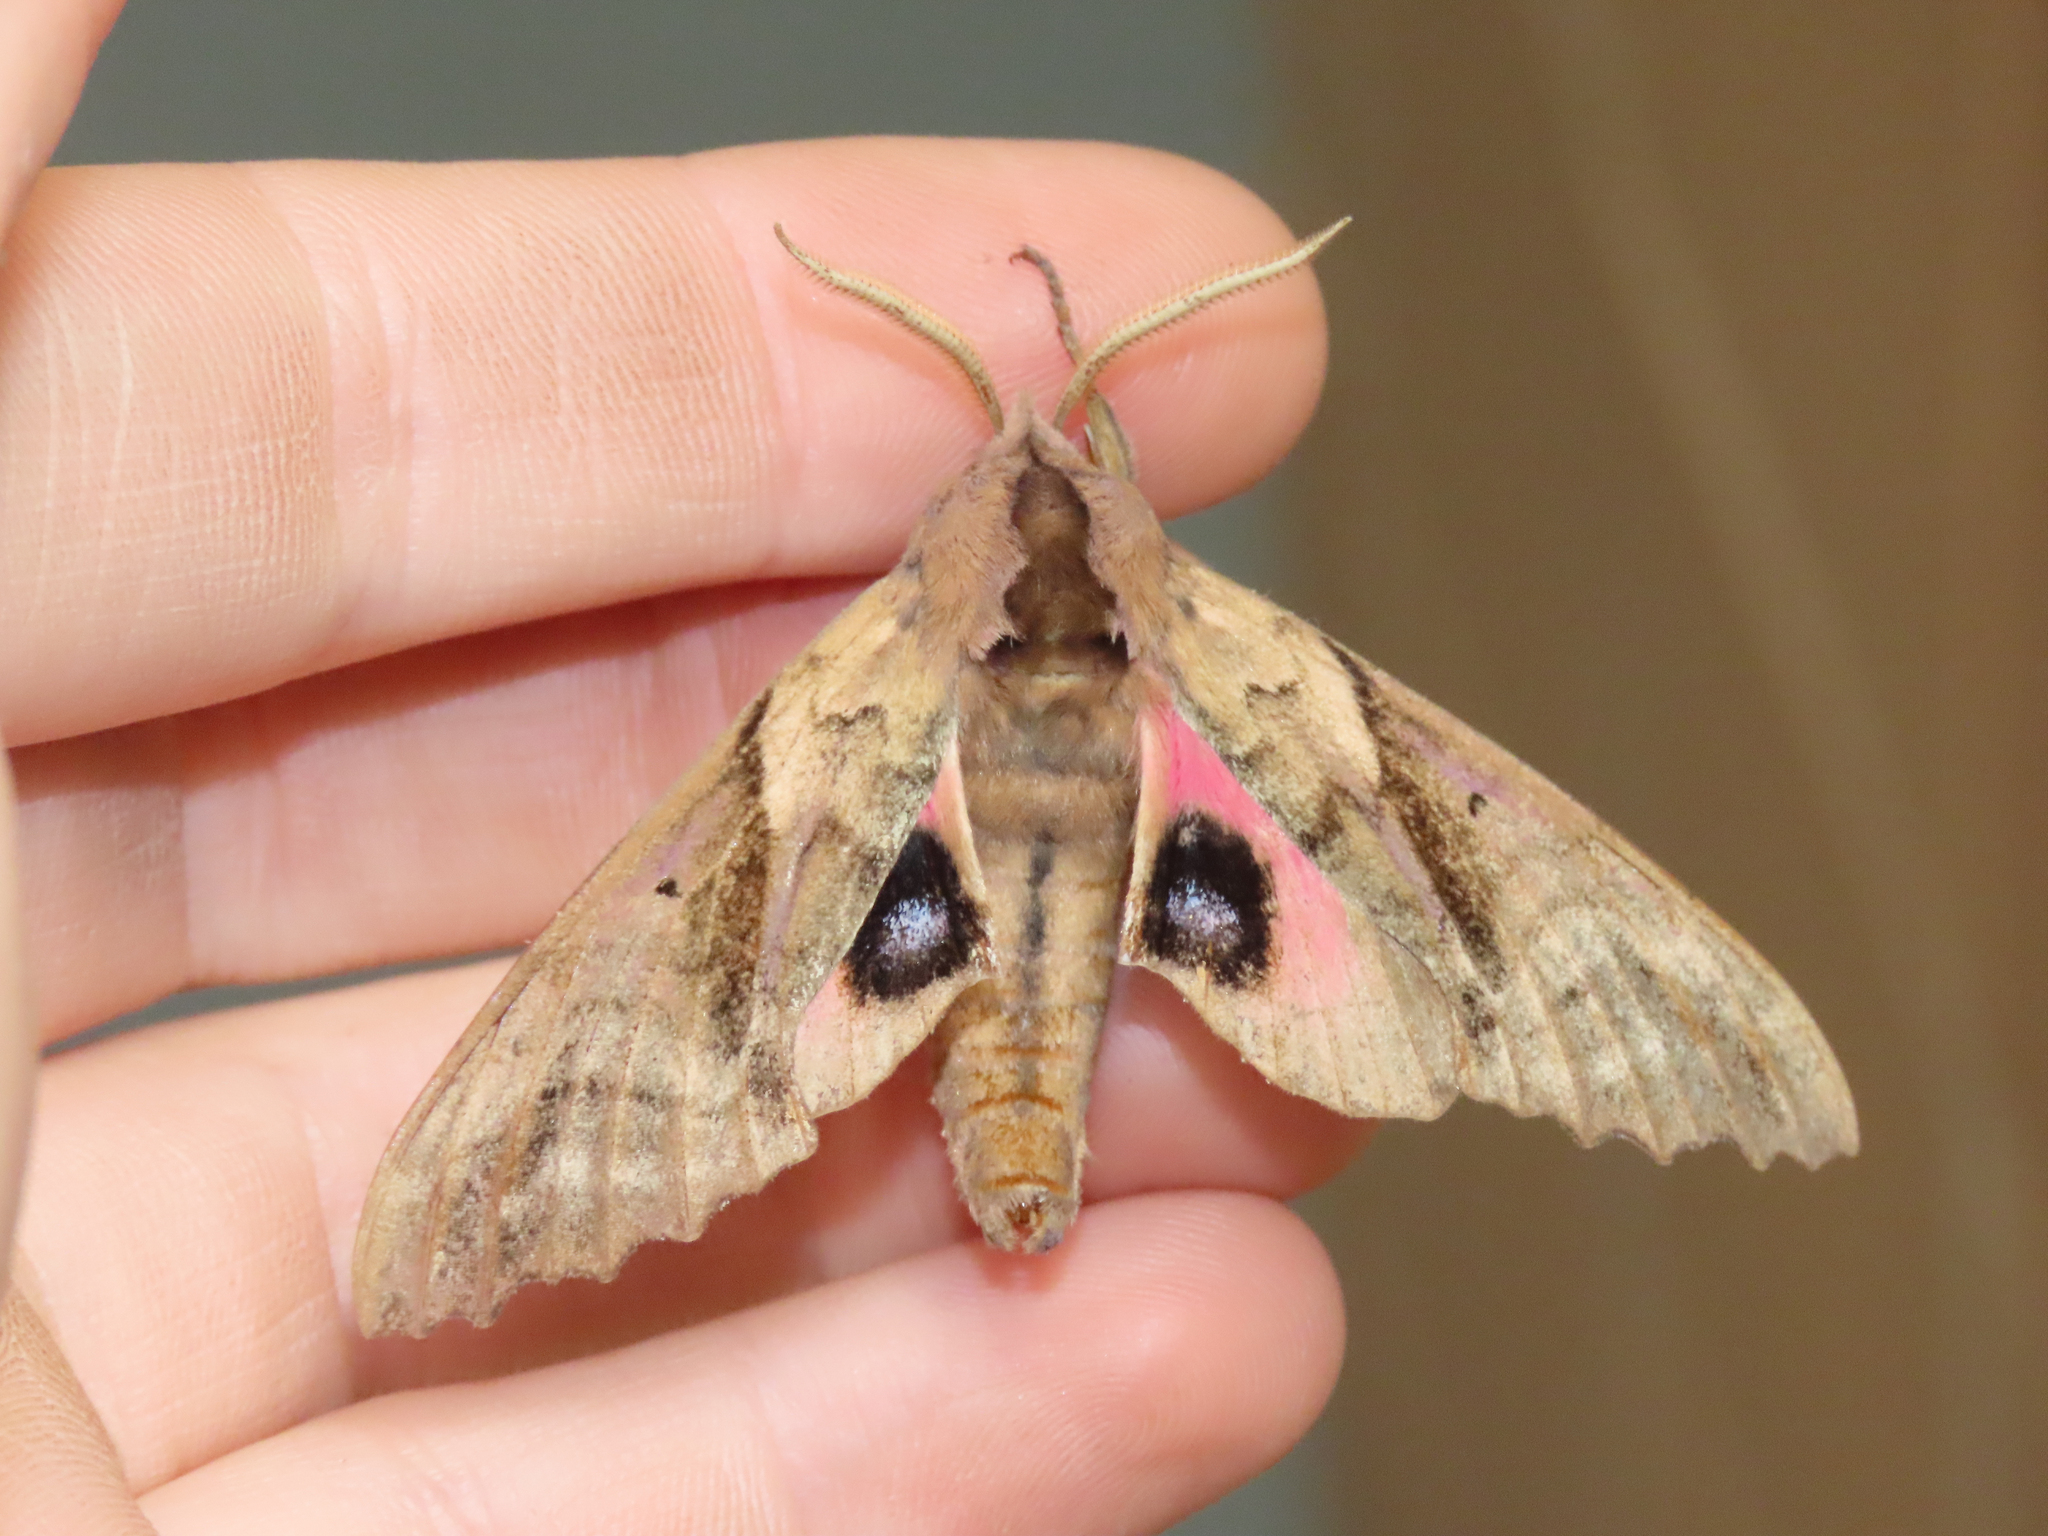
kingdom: Animalia
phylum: Arthropoda
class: Insecta
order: Lepidoptera
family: Sphingidae
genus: Paonias
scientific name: Paonias excaecata
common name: Blind-eyed sphinx
